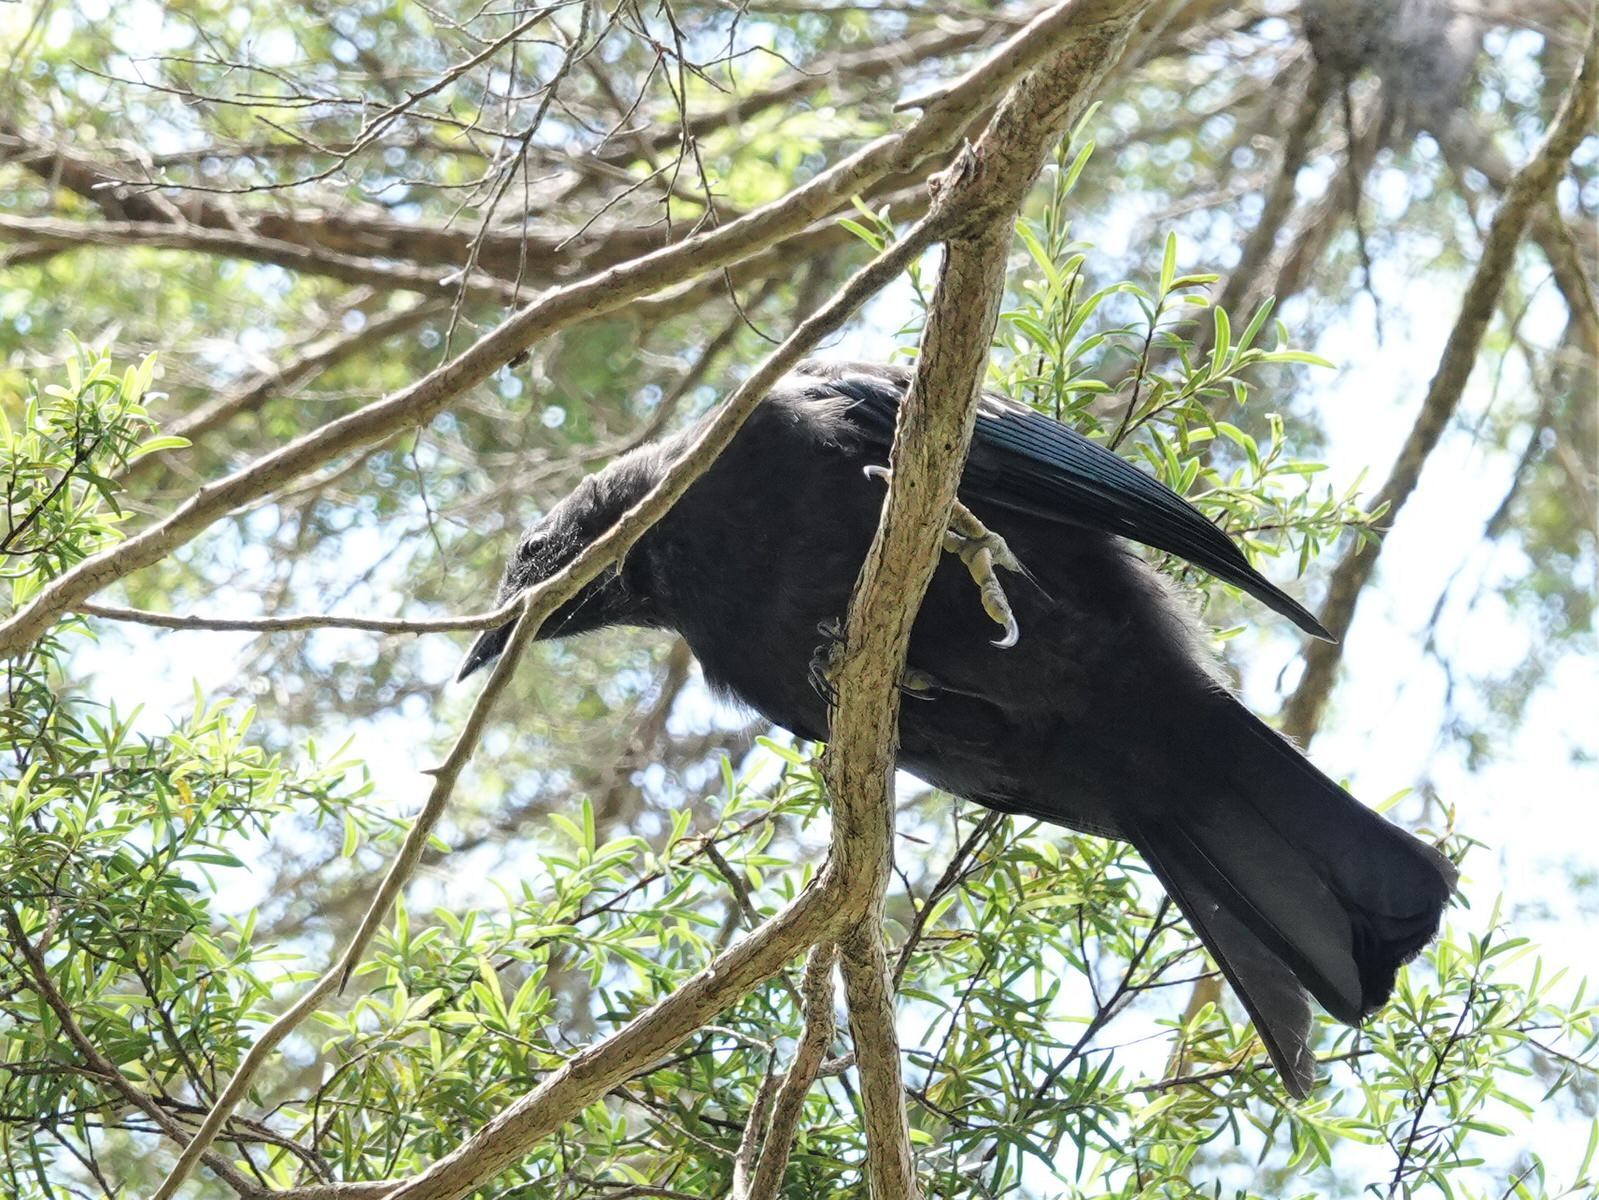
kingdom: Animalia
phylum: Chordata
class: Aves
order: Passeriformes
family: Meliphagidae
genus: Prosthemadera
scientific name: Prosthemadera novaeseelandiae
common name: Tui
